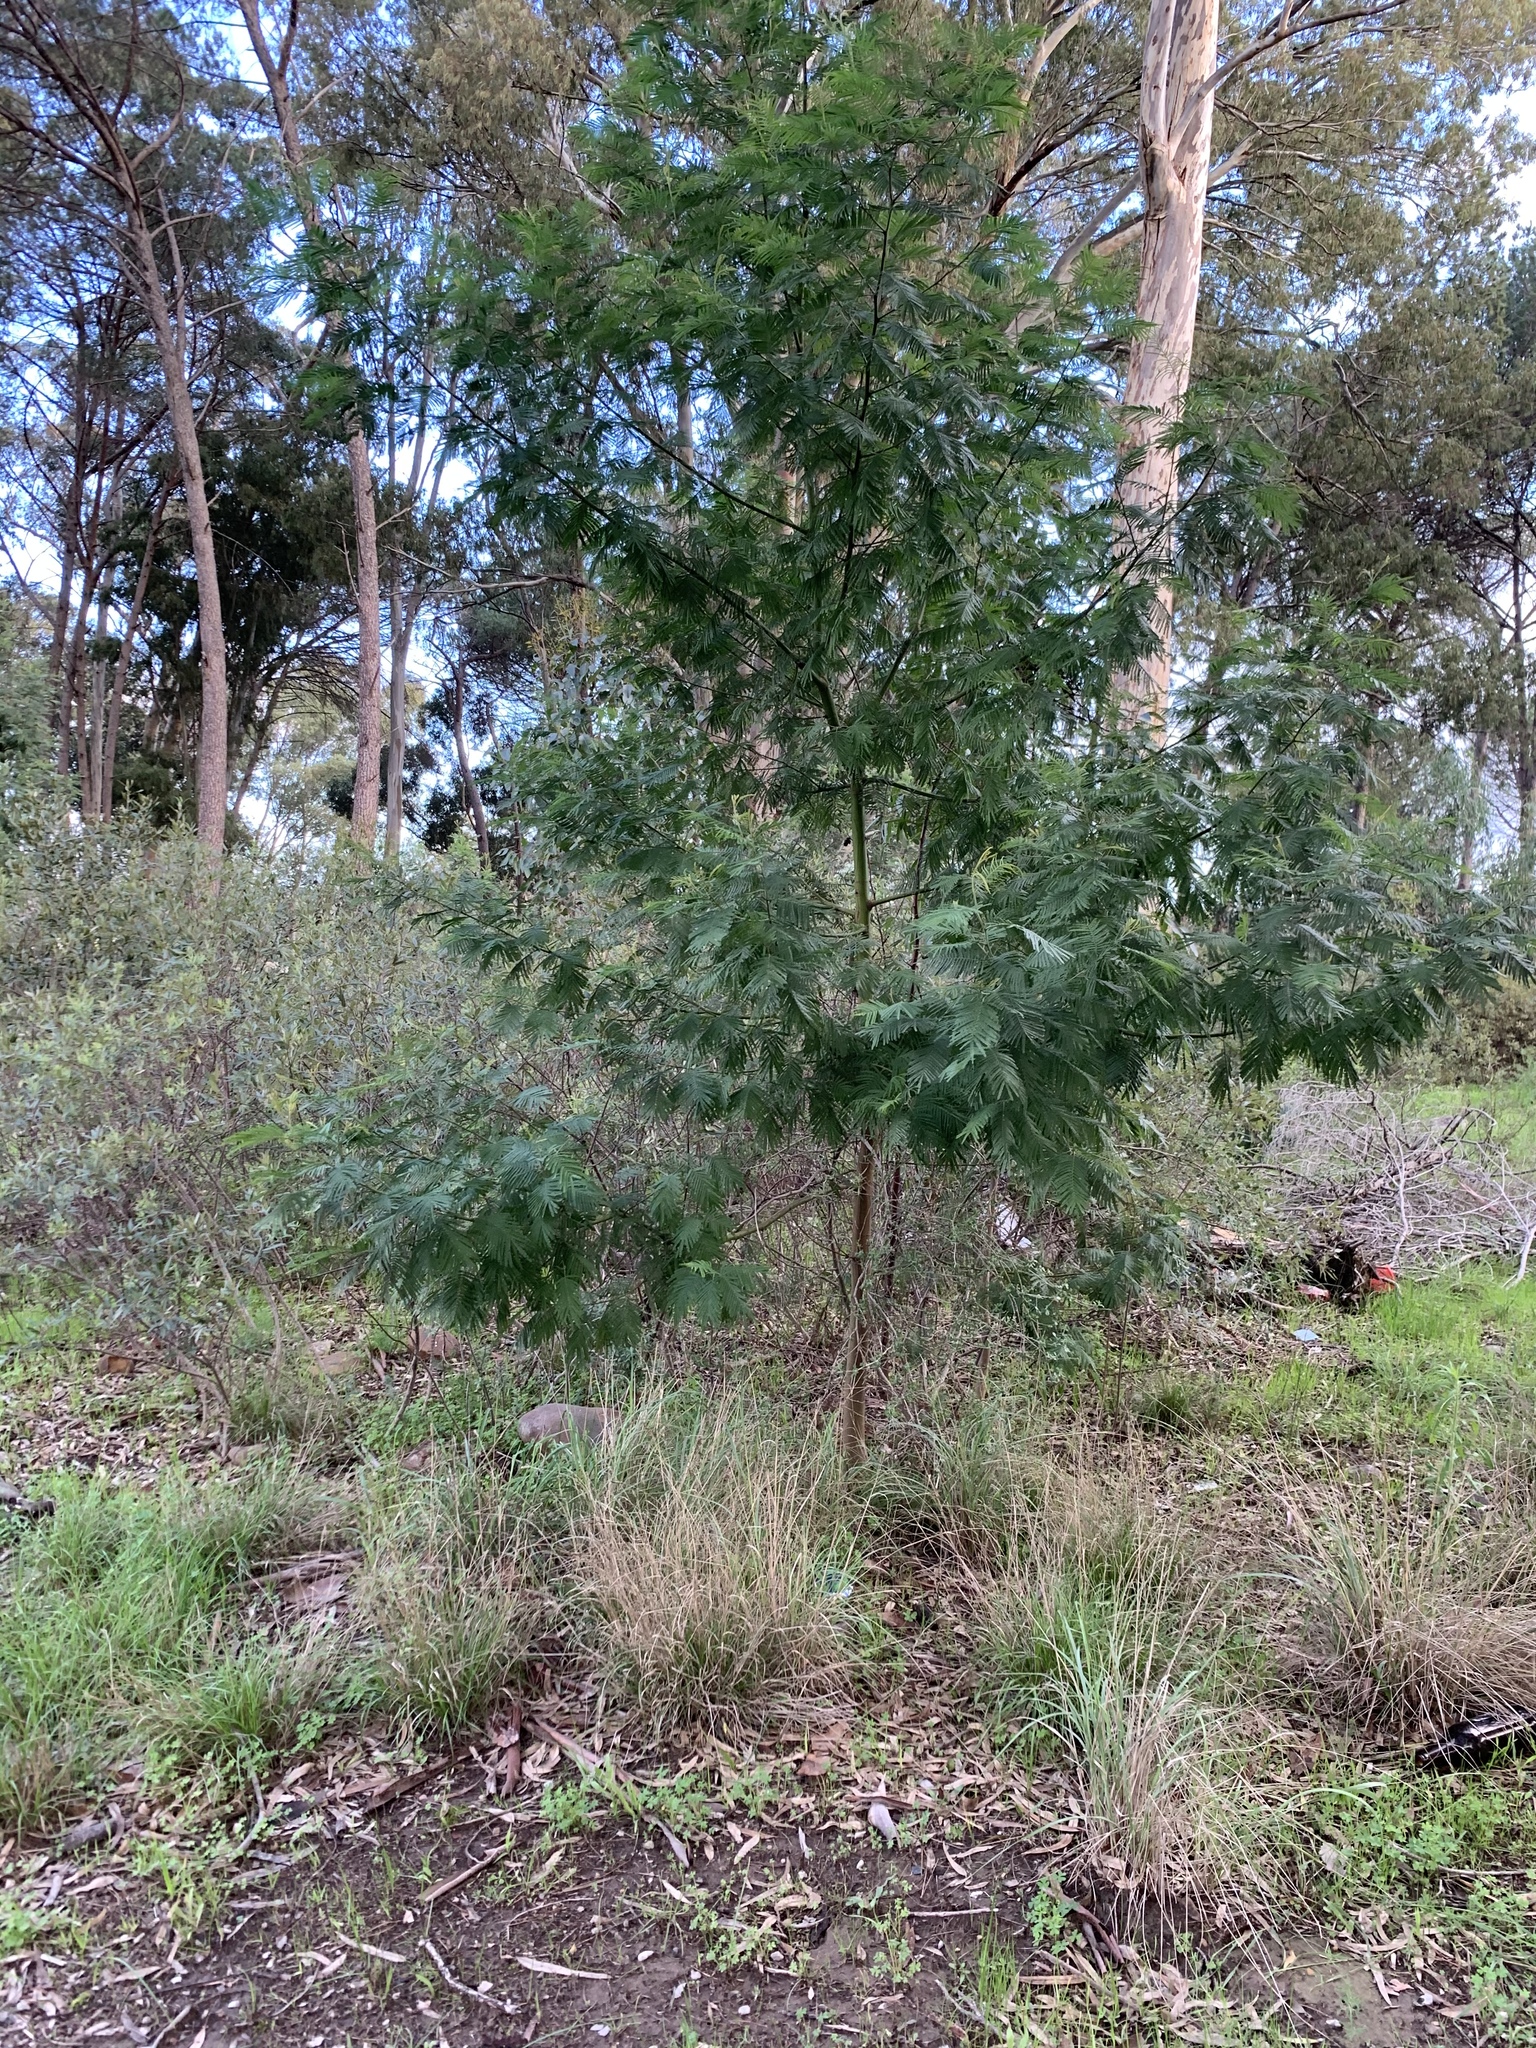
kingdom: Plantae
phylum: Tracheophyta
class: Magnoliopsida
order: Fabales
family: Fabaceae
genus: Acacia
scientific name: Acacia mearnsii
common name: Black wattle
